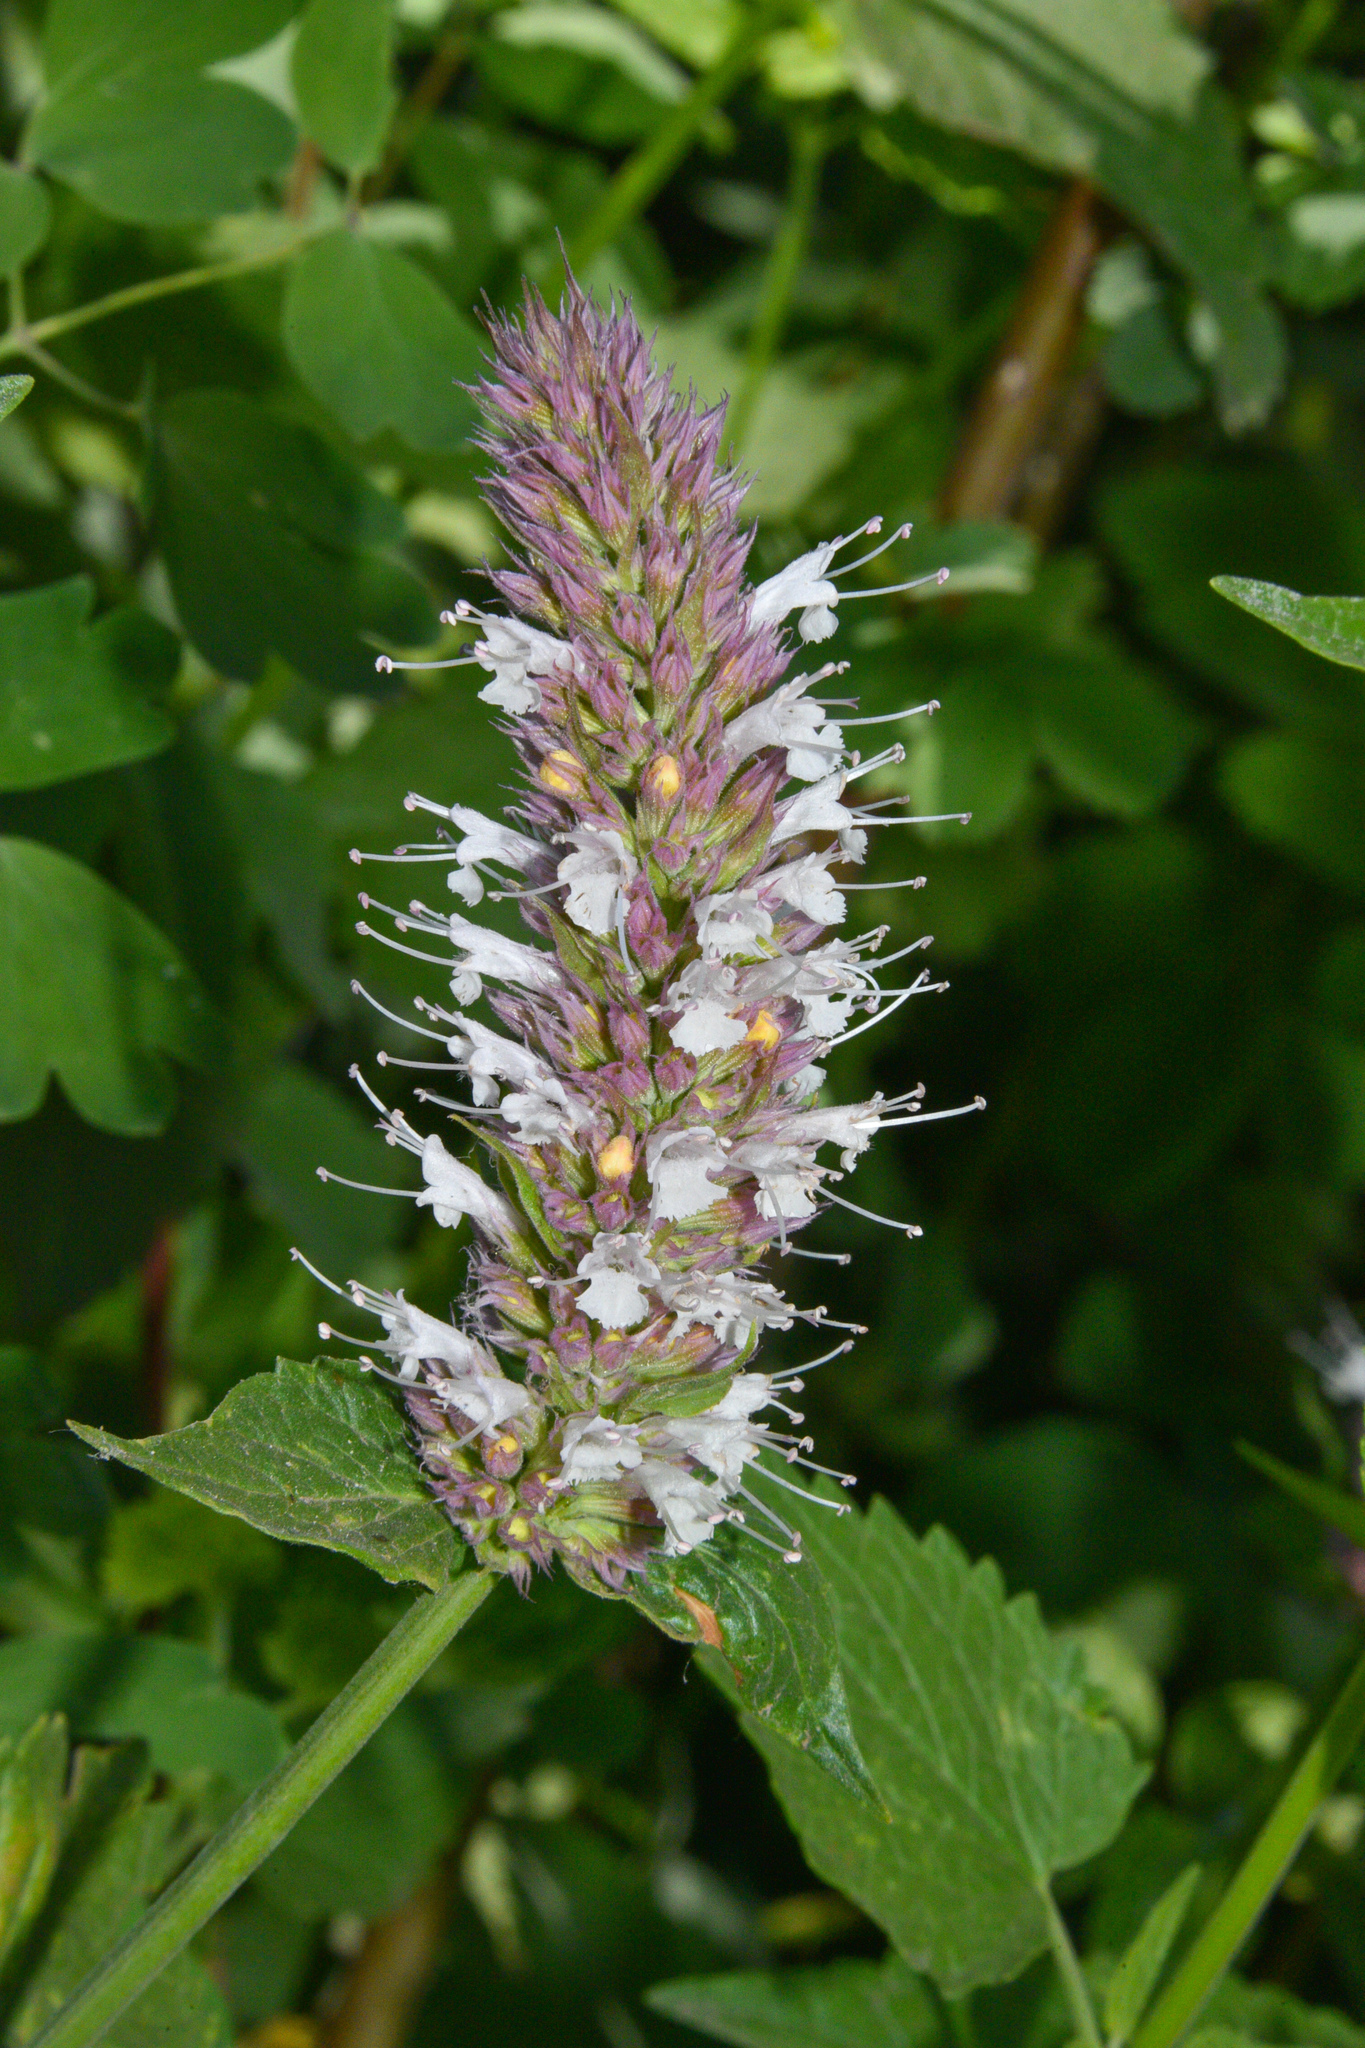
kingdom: Plantae
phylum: Tracheophyta
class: Magnoliopsida
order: Lamiales
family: Lamiaceae
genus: Agastache
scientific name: Agastache urticifolia
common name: Horsemint giant hyssop
